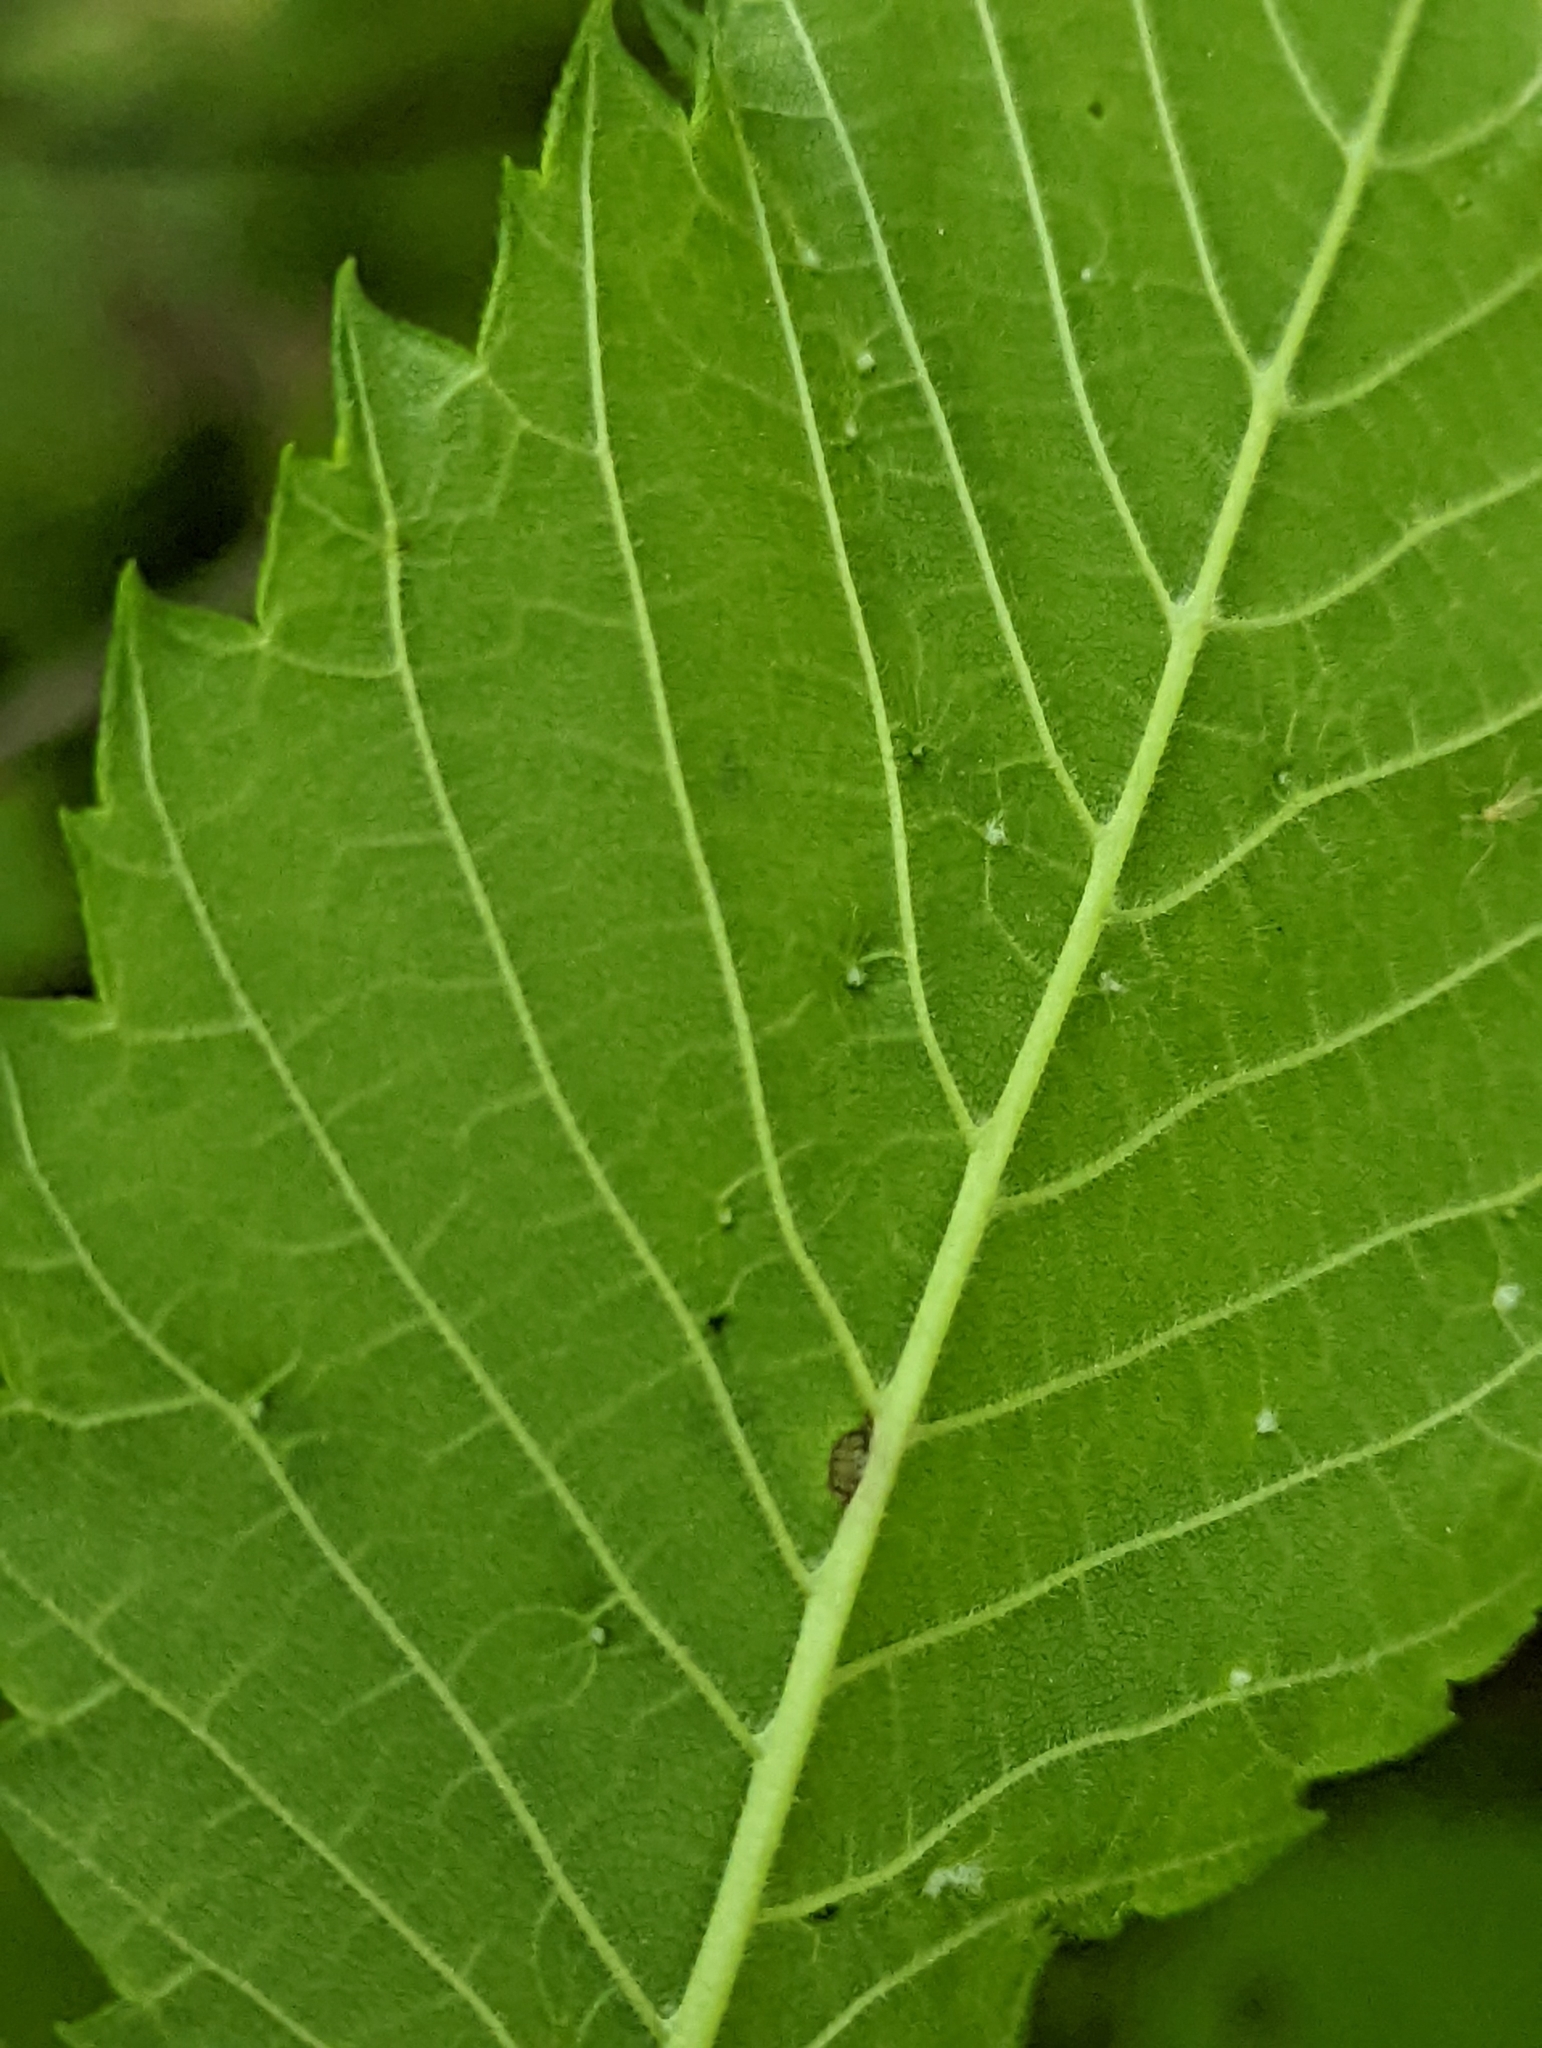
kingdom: Animalia
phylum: Arthropoda
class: Arachnida
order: Trombidiformes
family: Eriophyidae
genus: Aceria
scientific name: Aceria
